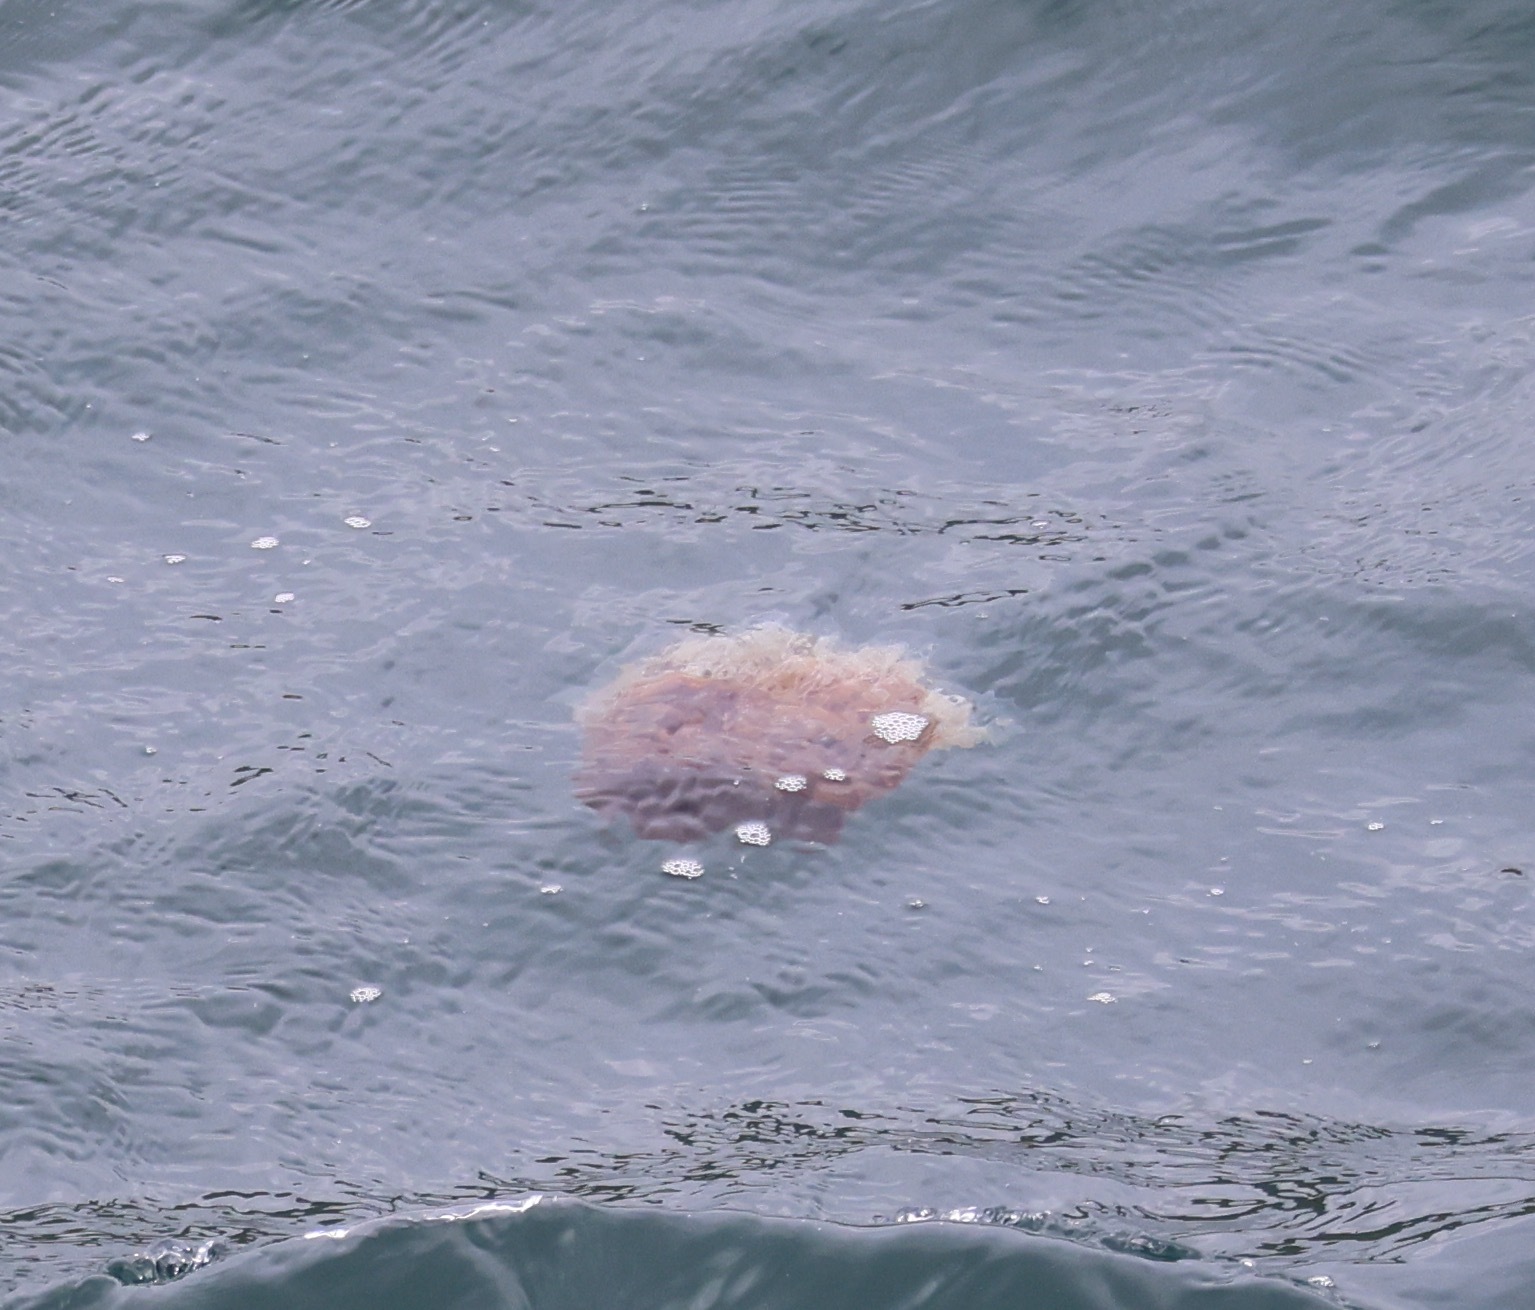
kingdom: Animalia
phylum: Cnidaria
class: Scyphozoa
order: Semaeostomeae
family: Cyaneidae
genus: Cyanea
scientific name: Cyanea capillata
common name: Lion's mane jellyfish
